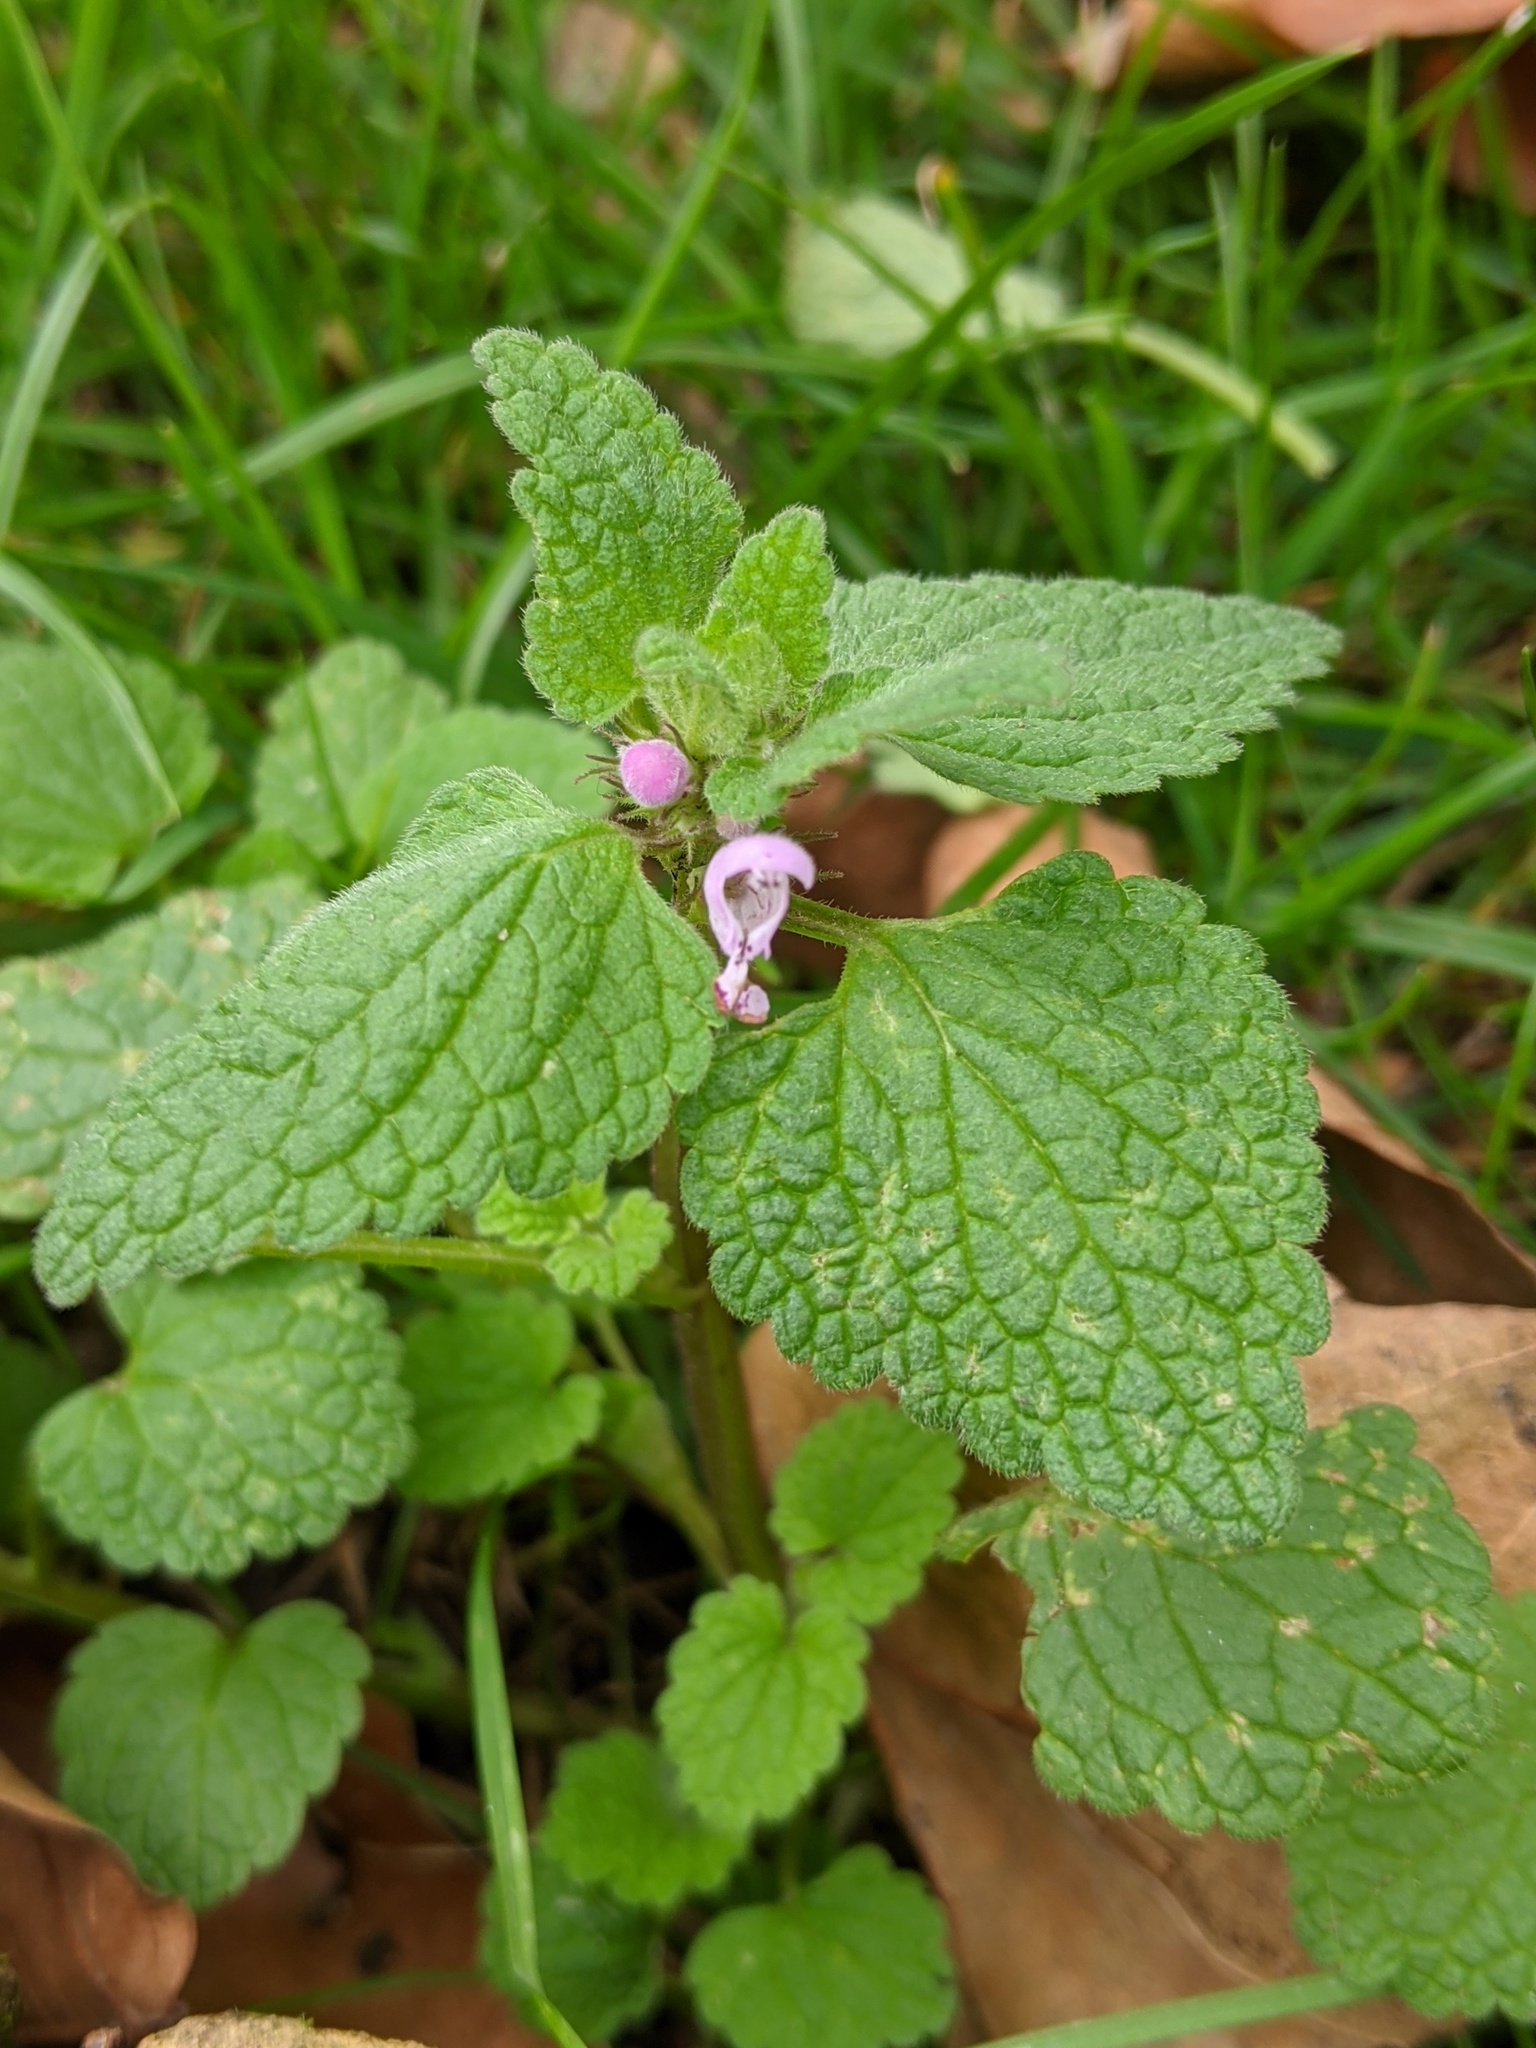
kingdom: Plantae
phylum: Tracheophyta
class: Magnoliopsida
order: Lamiales
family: Lamiaceae
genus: Lamium
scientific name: Lamium purpureum
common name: Red dead-nettle
